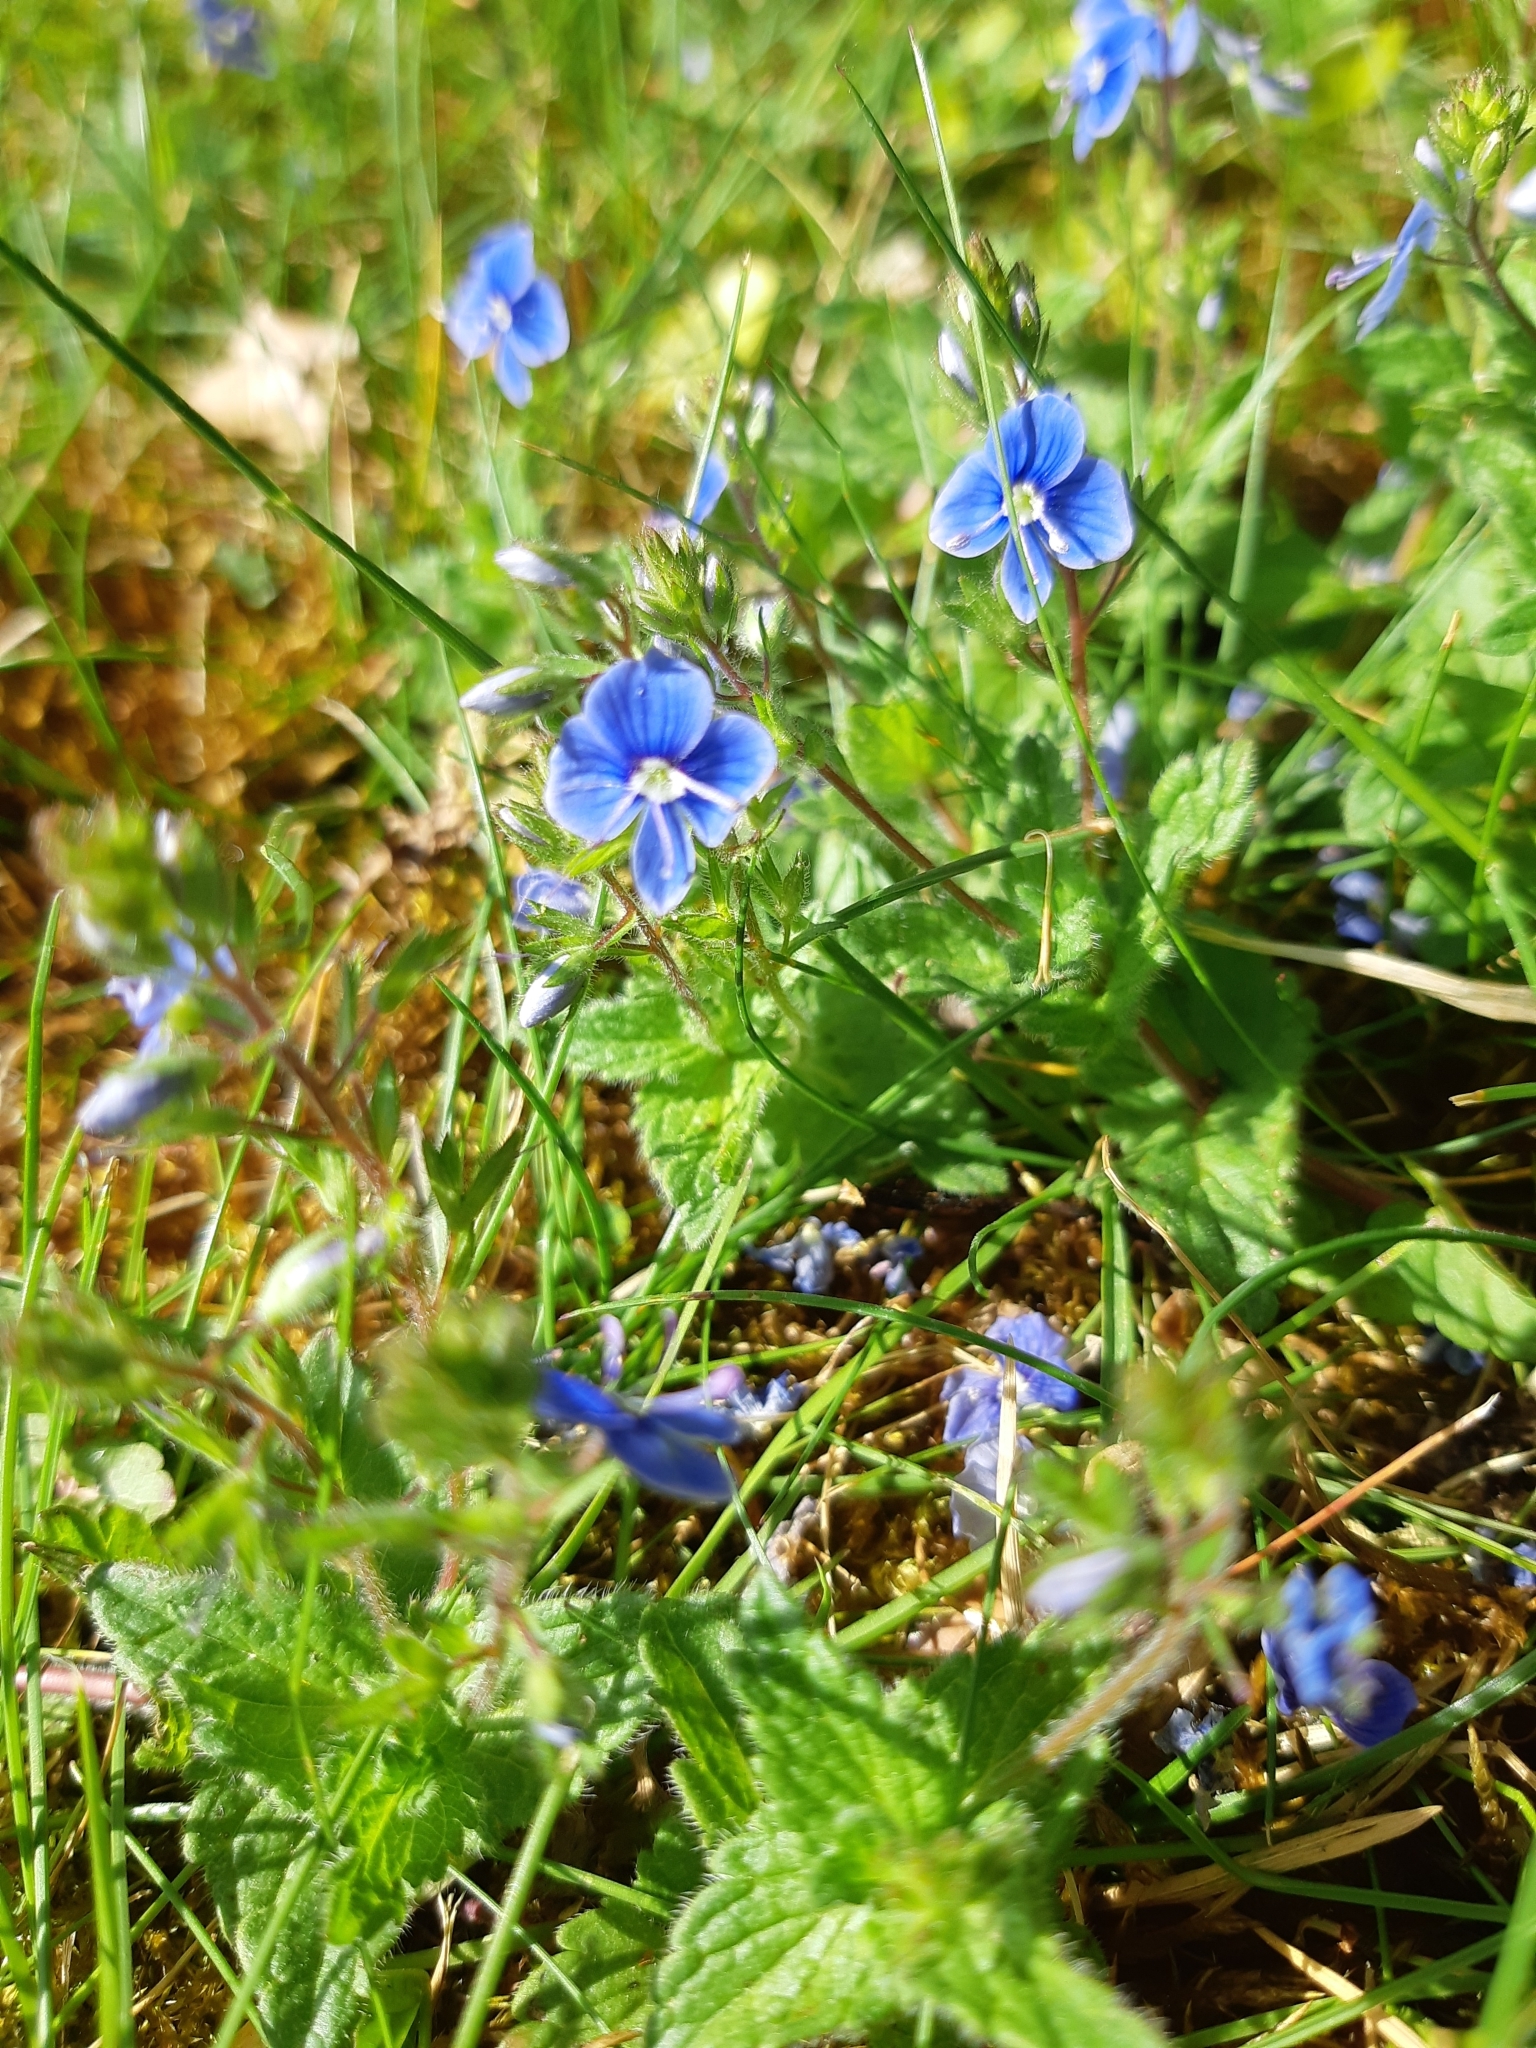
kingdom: Plantae
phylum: Tracheophyta
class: Magnoliopsida
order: Lamiales
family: Plantaginaceae
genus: Veronica
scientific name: Veronica chamaedrys
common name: Germander speedwell
